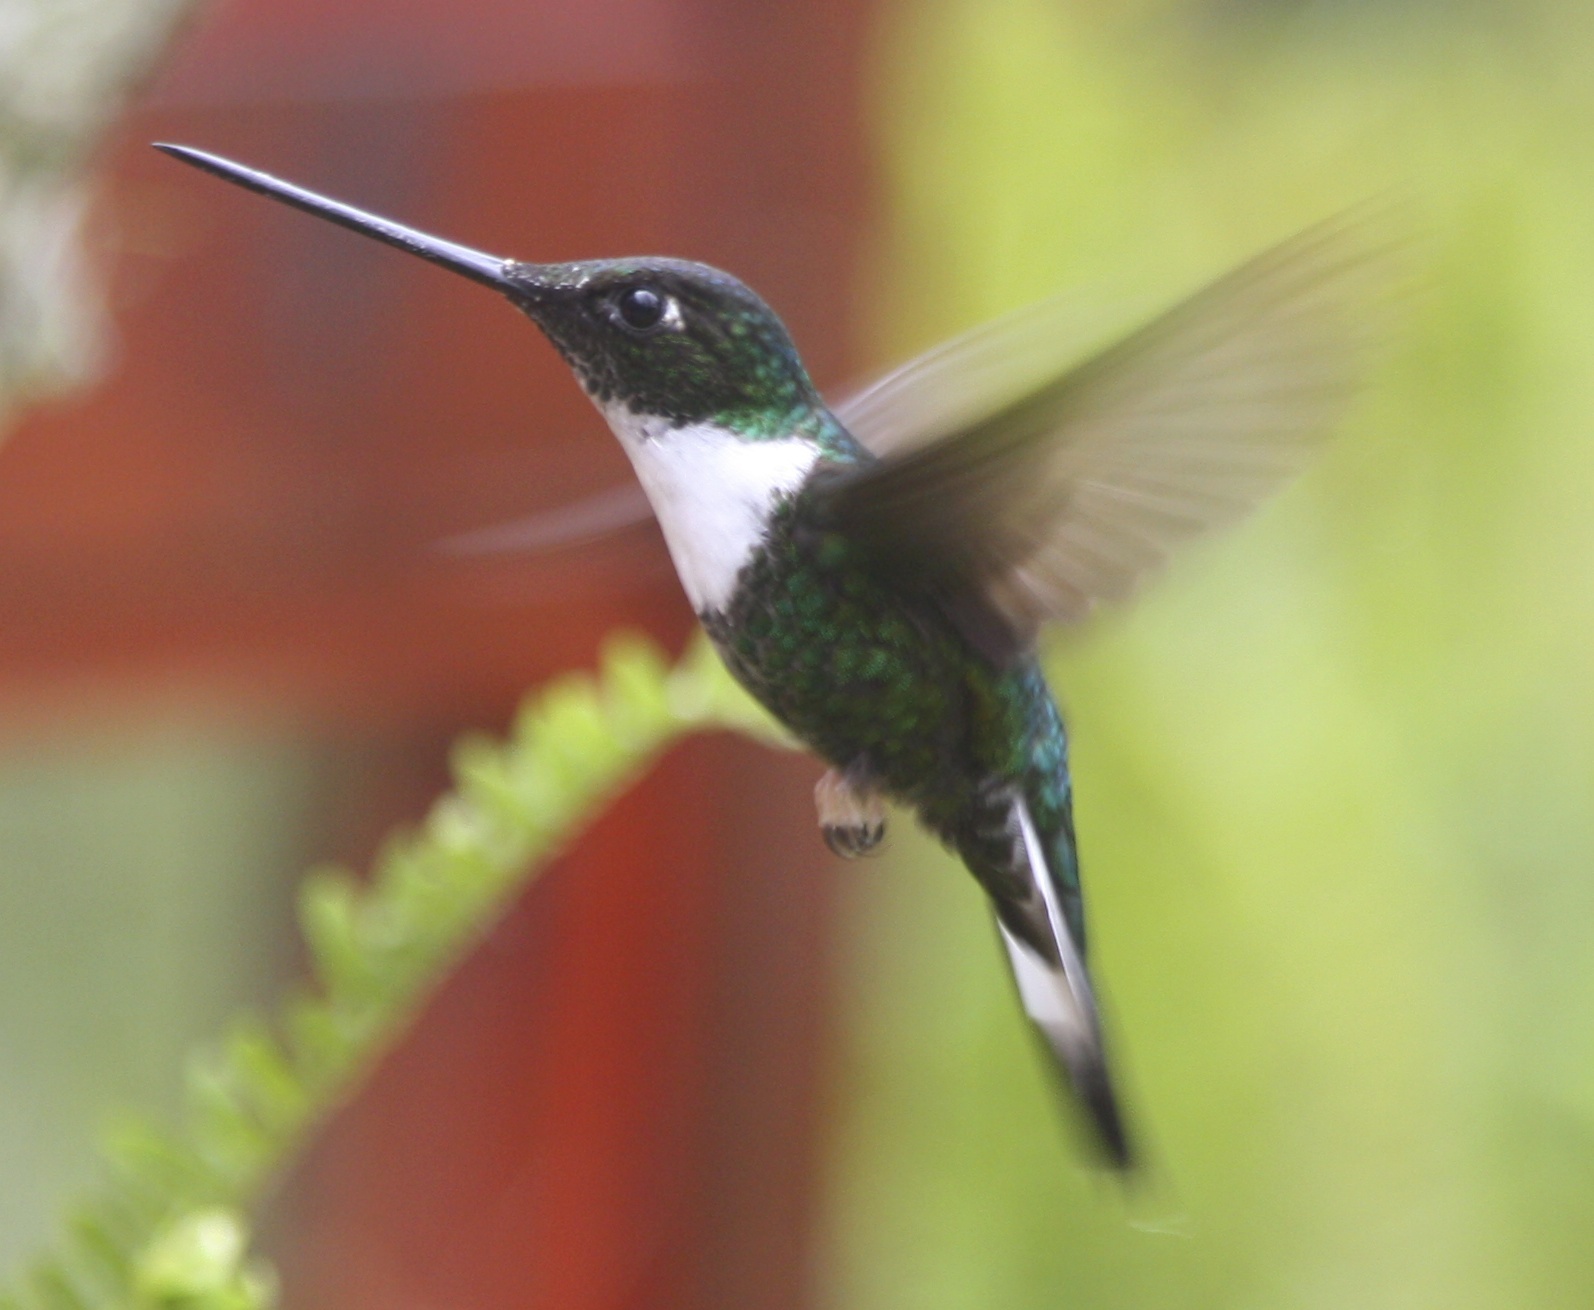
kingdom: Animalia
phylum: Chordata
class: Aves
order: Apodiformes
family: Trochilidae
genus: Coeligena
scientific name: Coeligena torquata
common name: Collared inca
